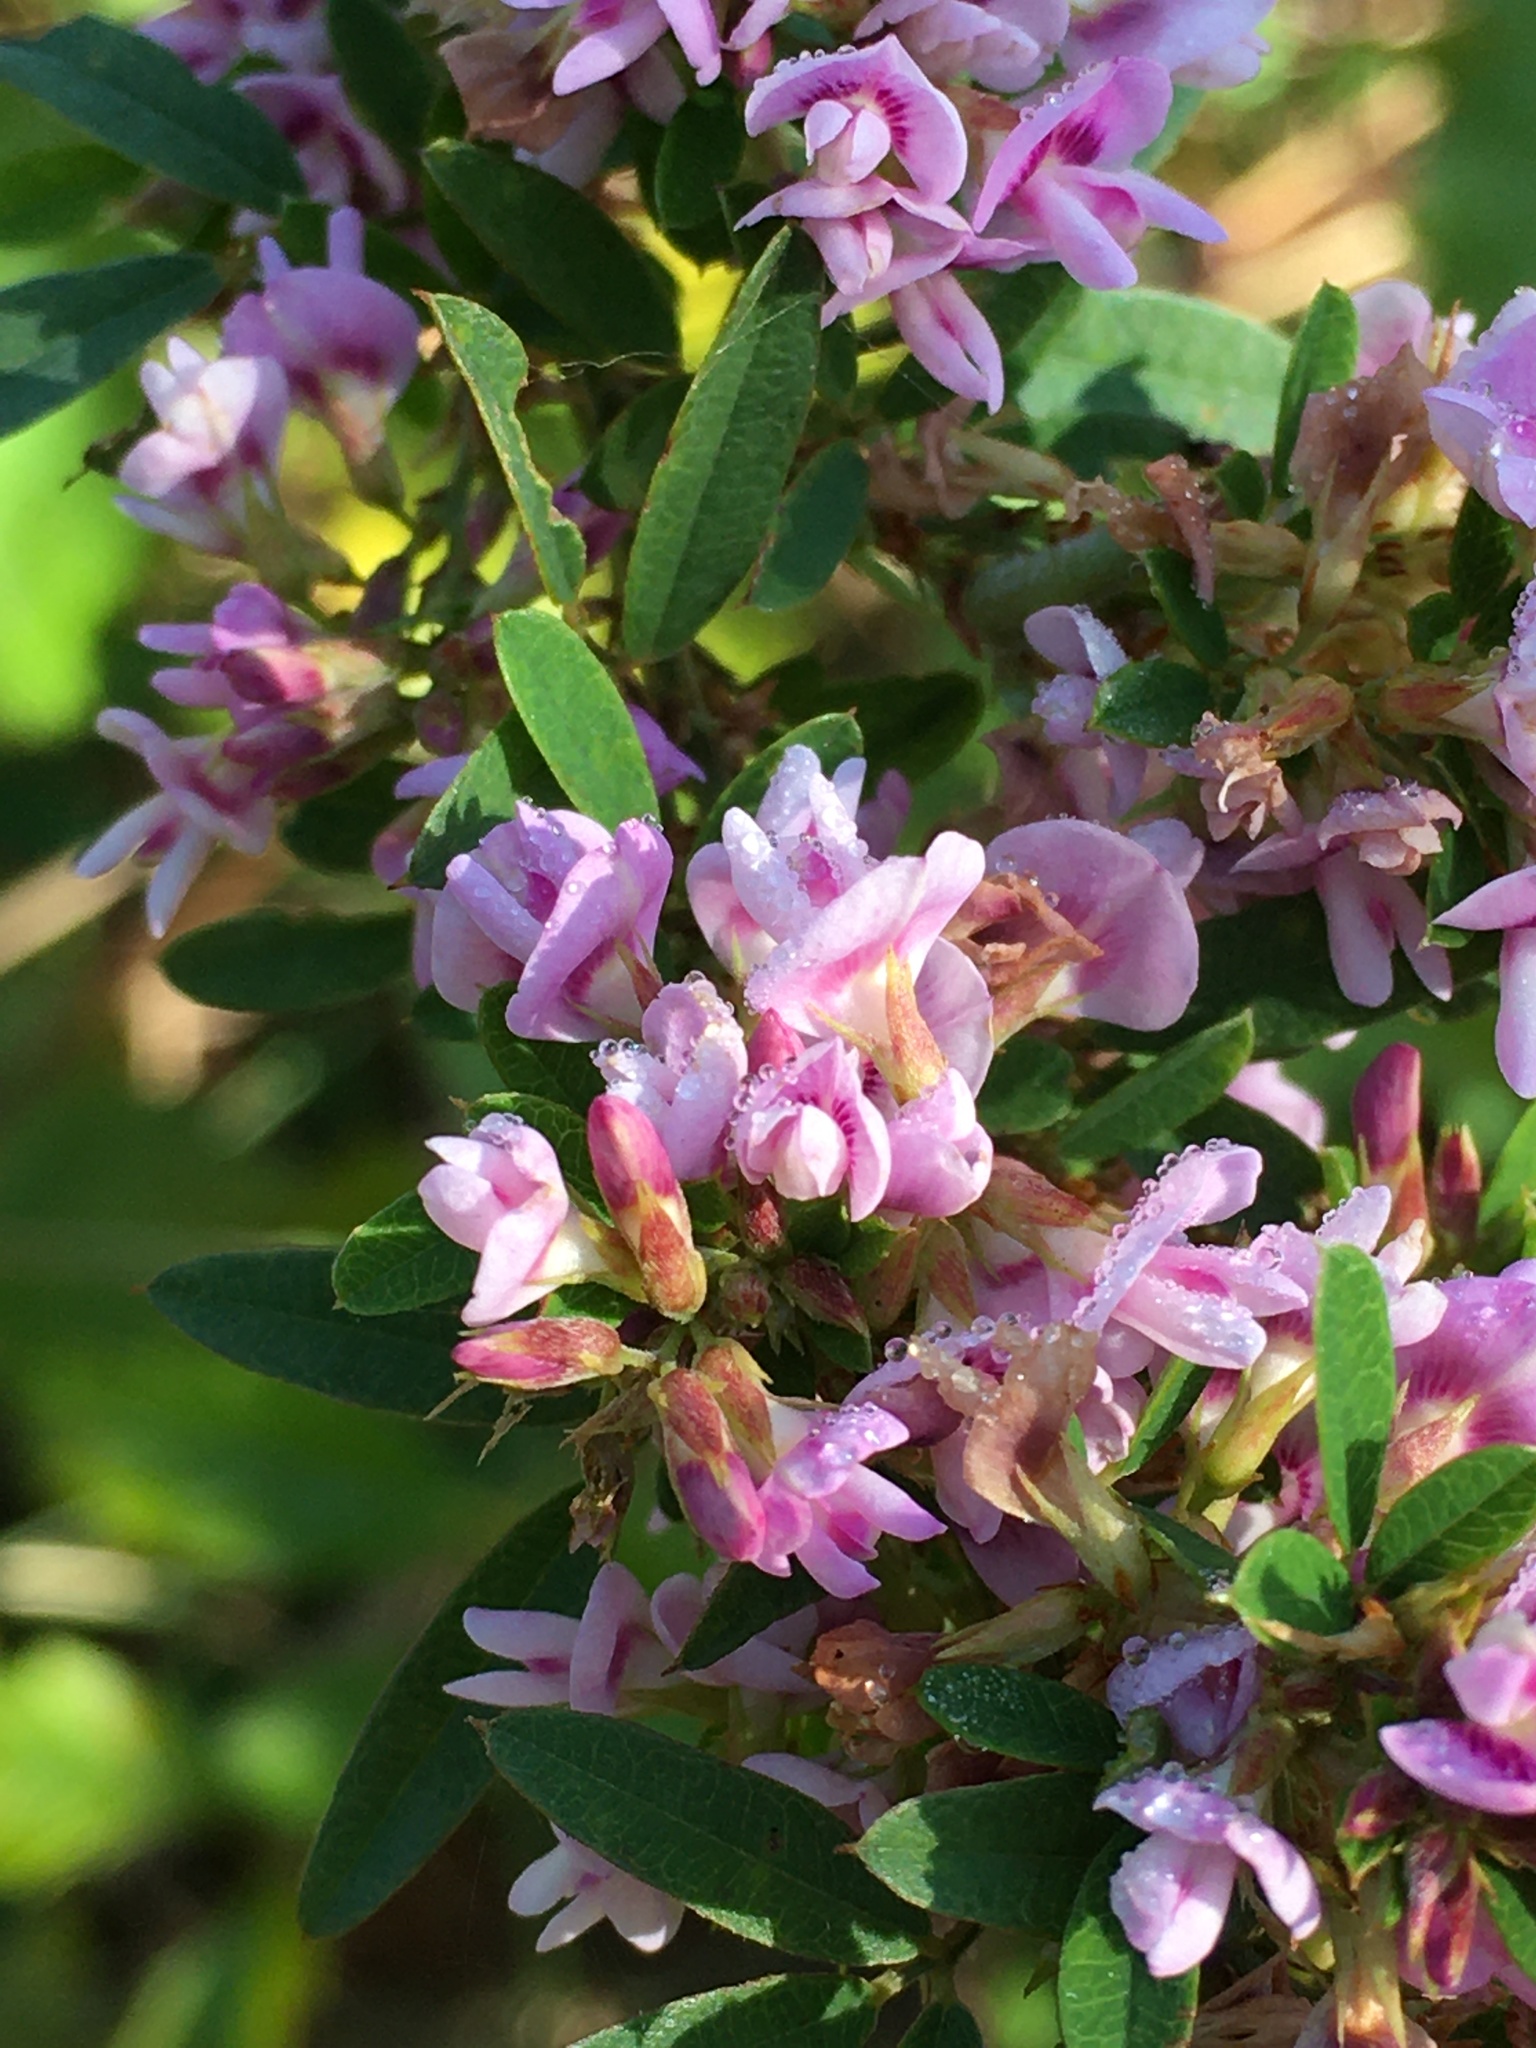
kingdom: Plantae
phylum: Tracheophyta
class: Magnoliopsida
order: Fabales
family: Fabaceae
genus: Lespedeza
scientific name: Lespedeza virginica
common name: Slender bush-clover
